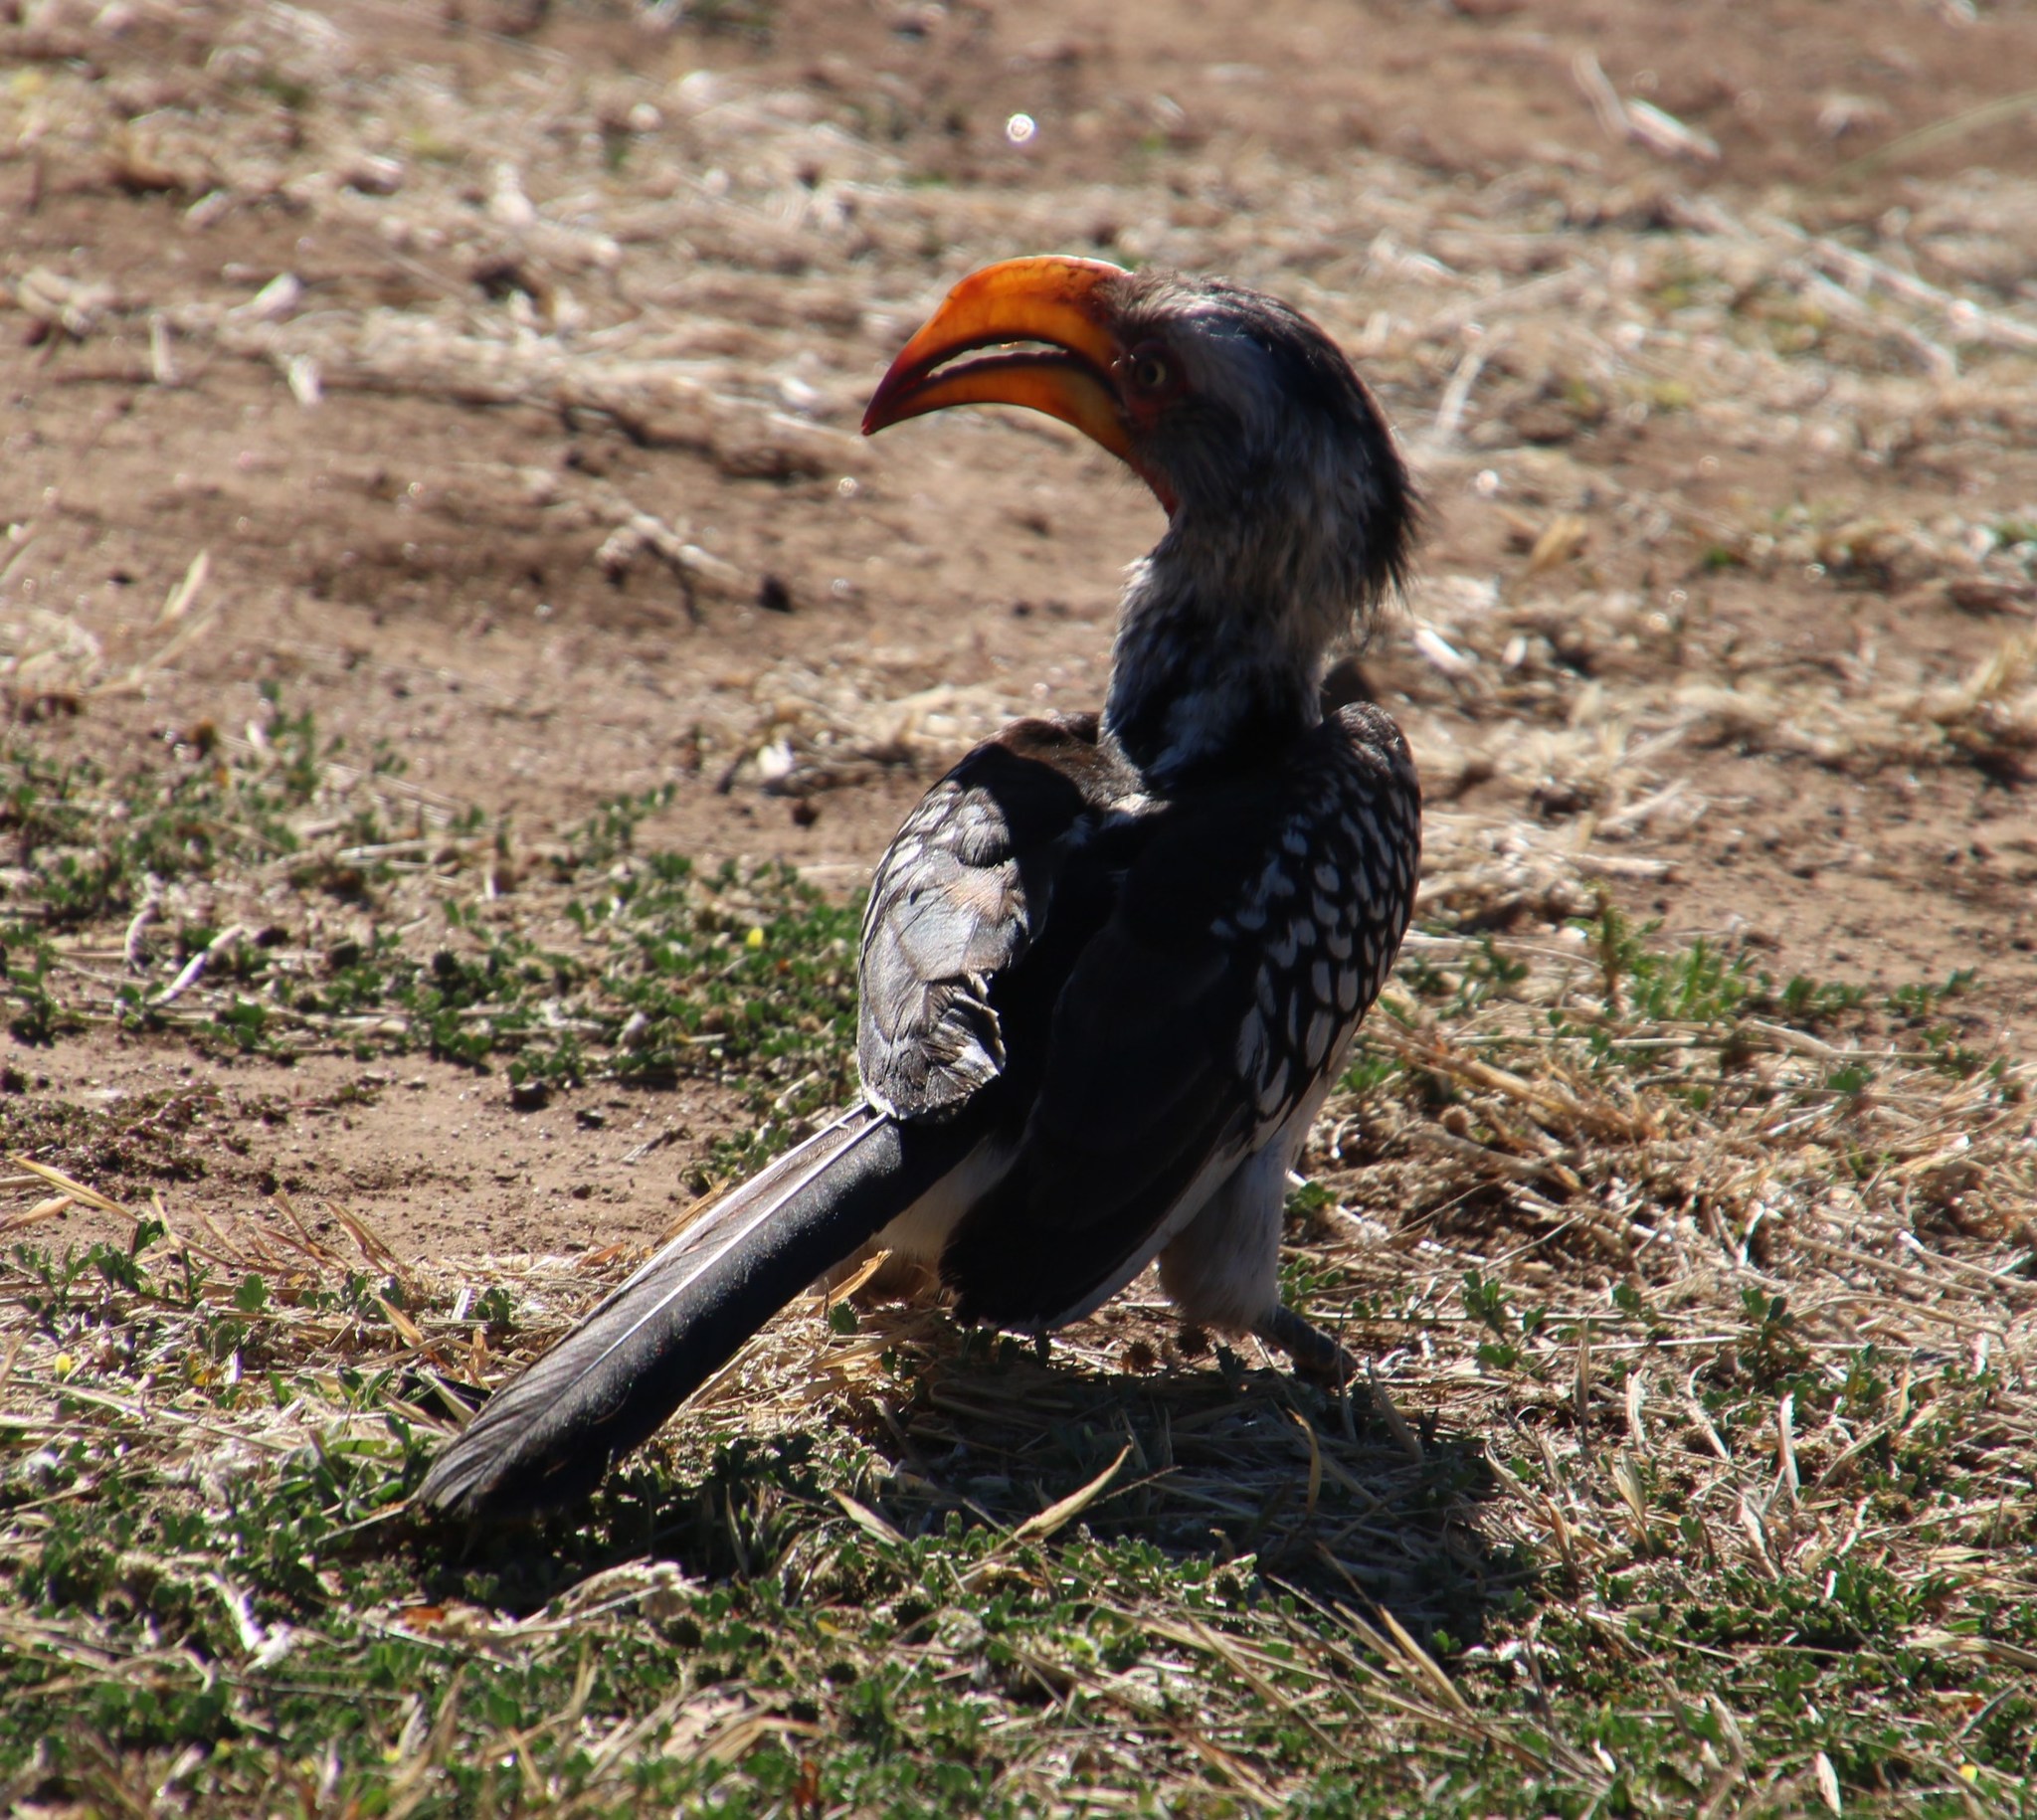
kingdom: Animalia
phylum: Chordata
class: Aves
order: Bucerotiformes
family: Bucerotidae
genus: Tockus
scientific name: Tockus leucomelas
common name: Southern yellow-billed hornbill
